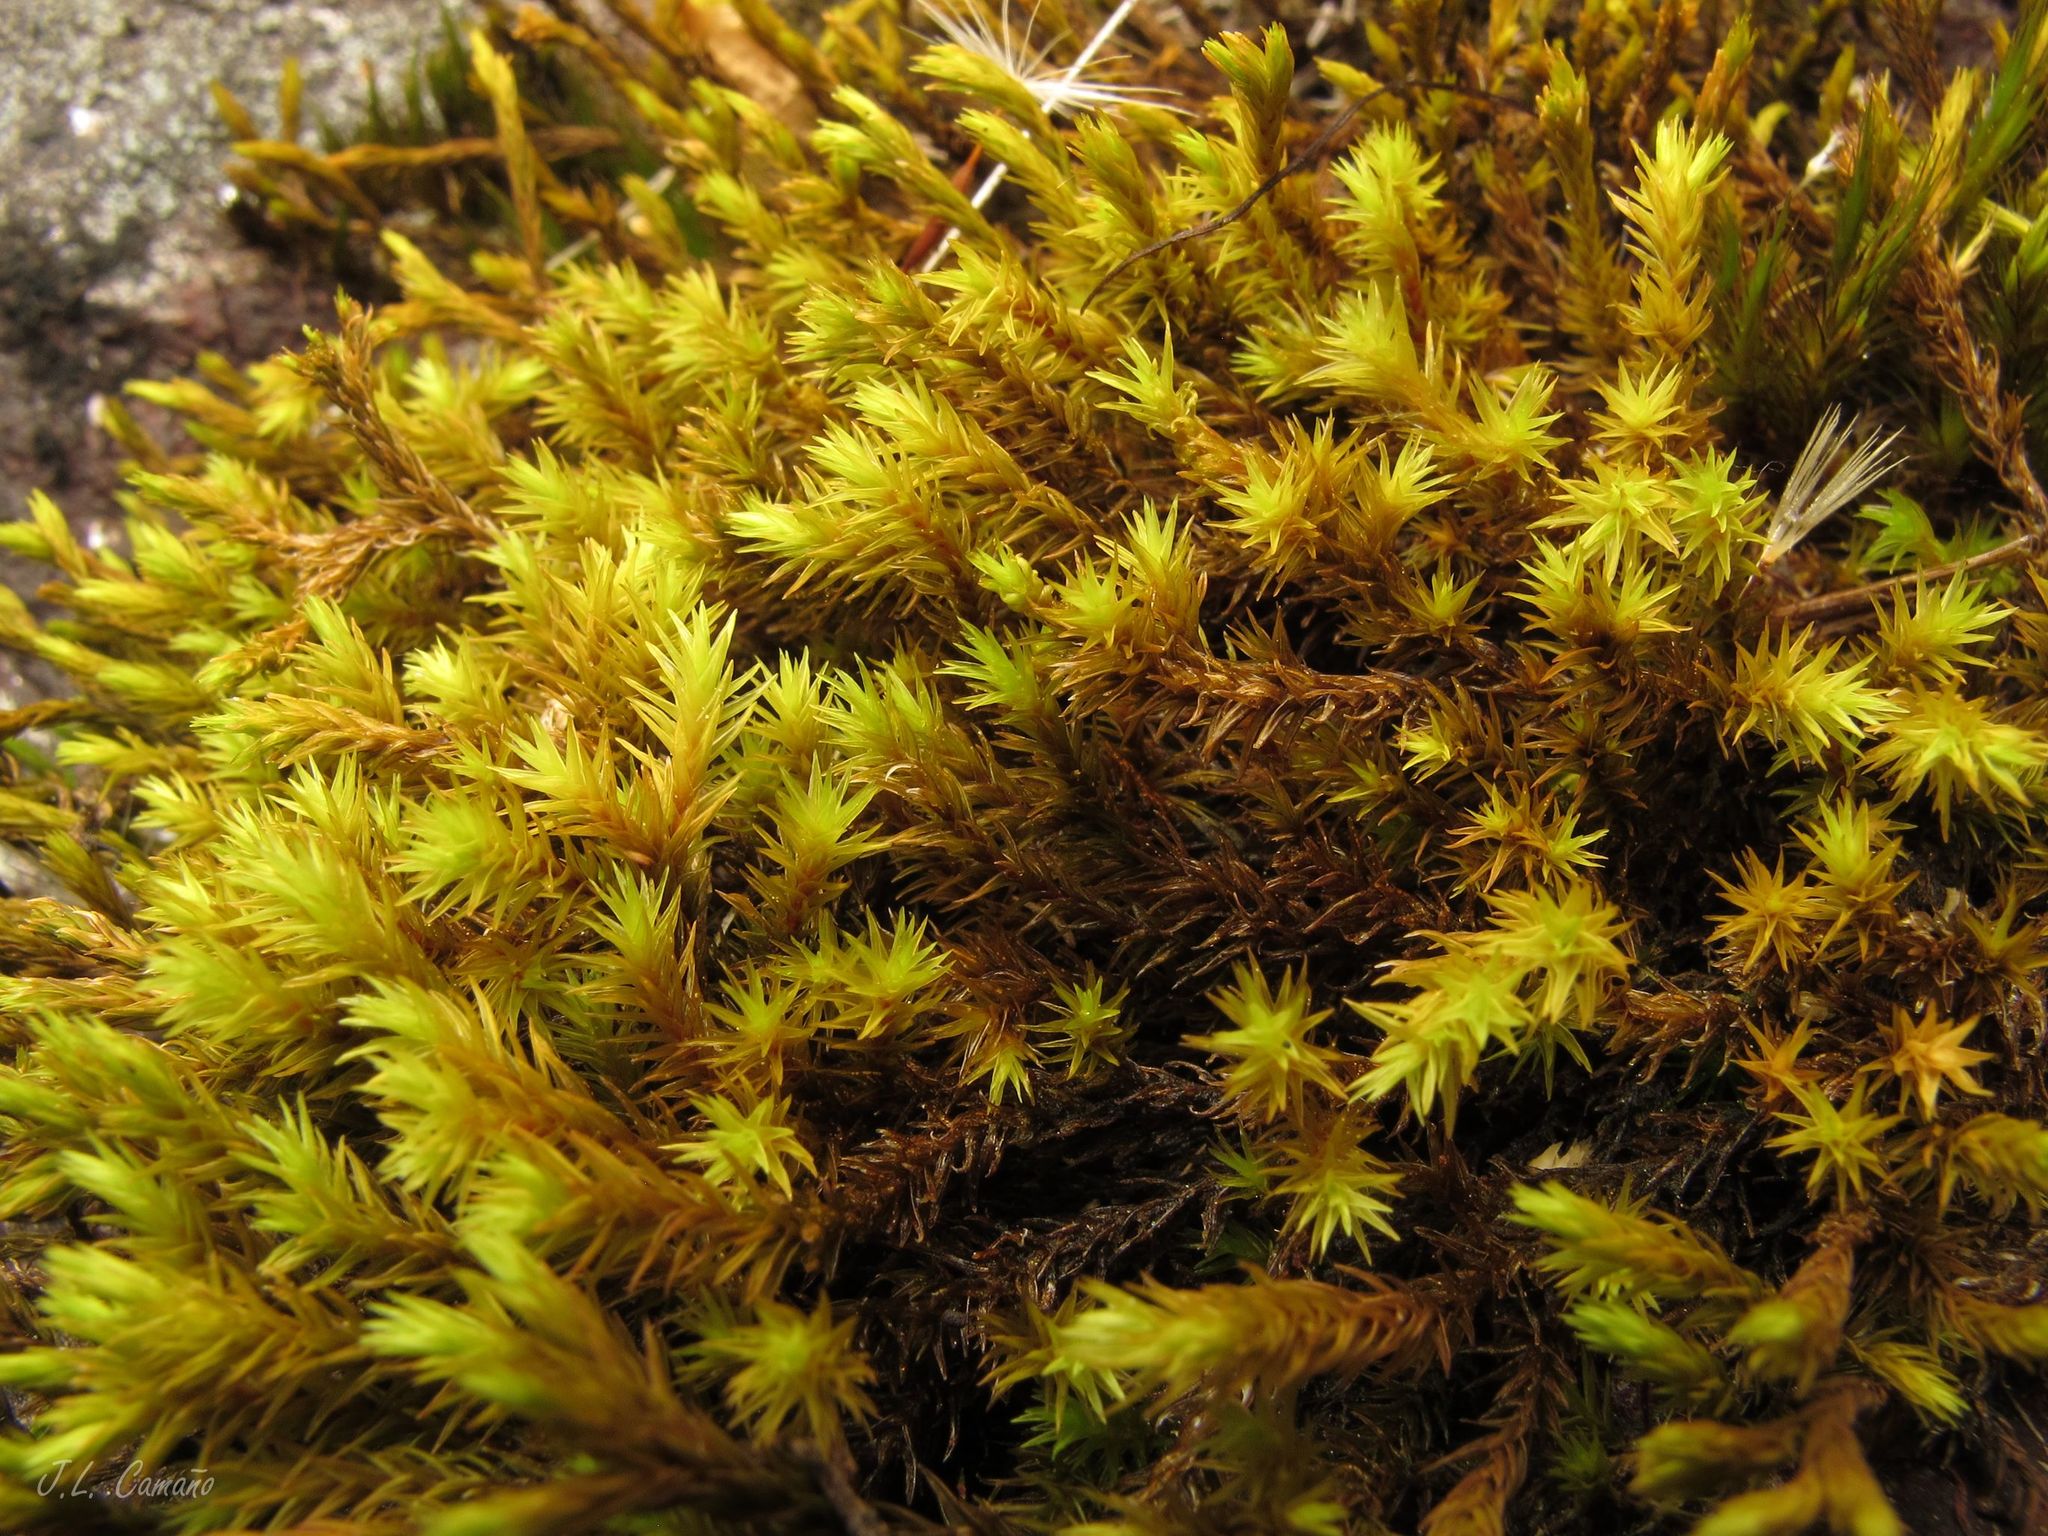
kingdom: Plantae
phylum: Bryophyta
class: Bryopsida
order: Grimmiales
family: Grimmiaceae
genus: Codriophorus
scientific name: Codriophorus aquaticus
